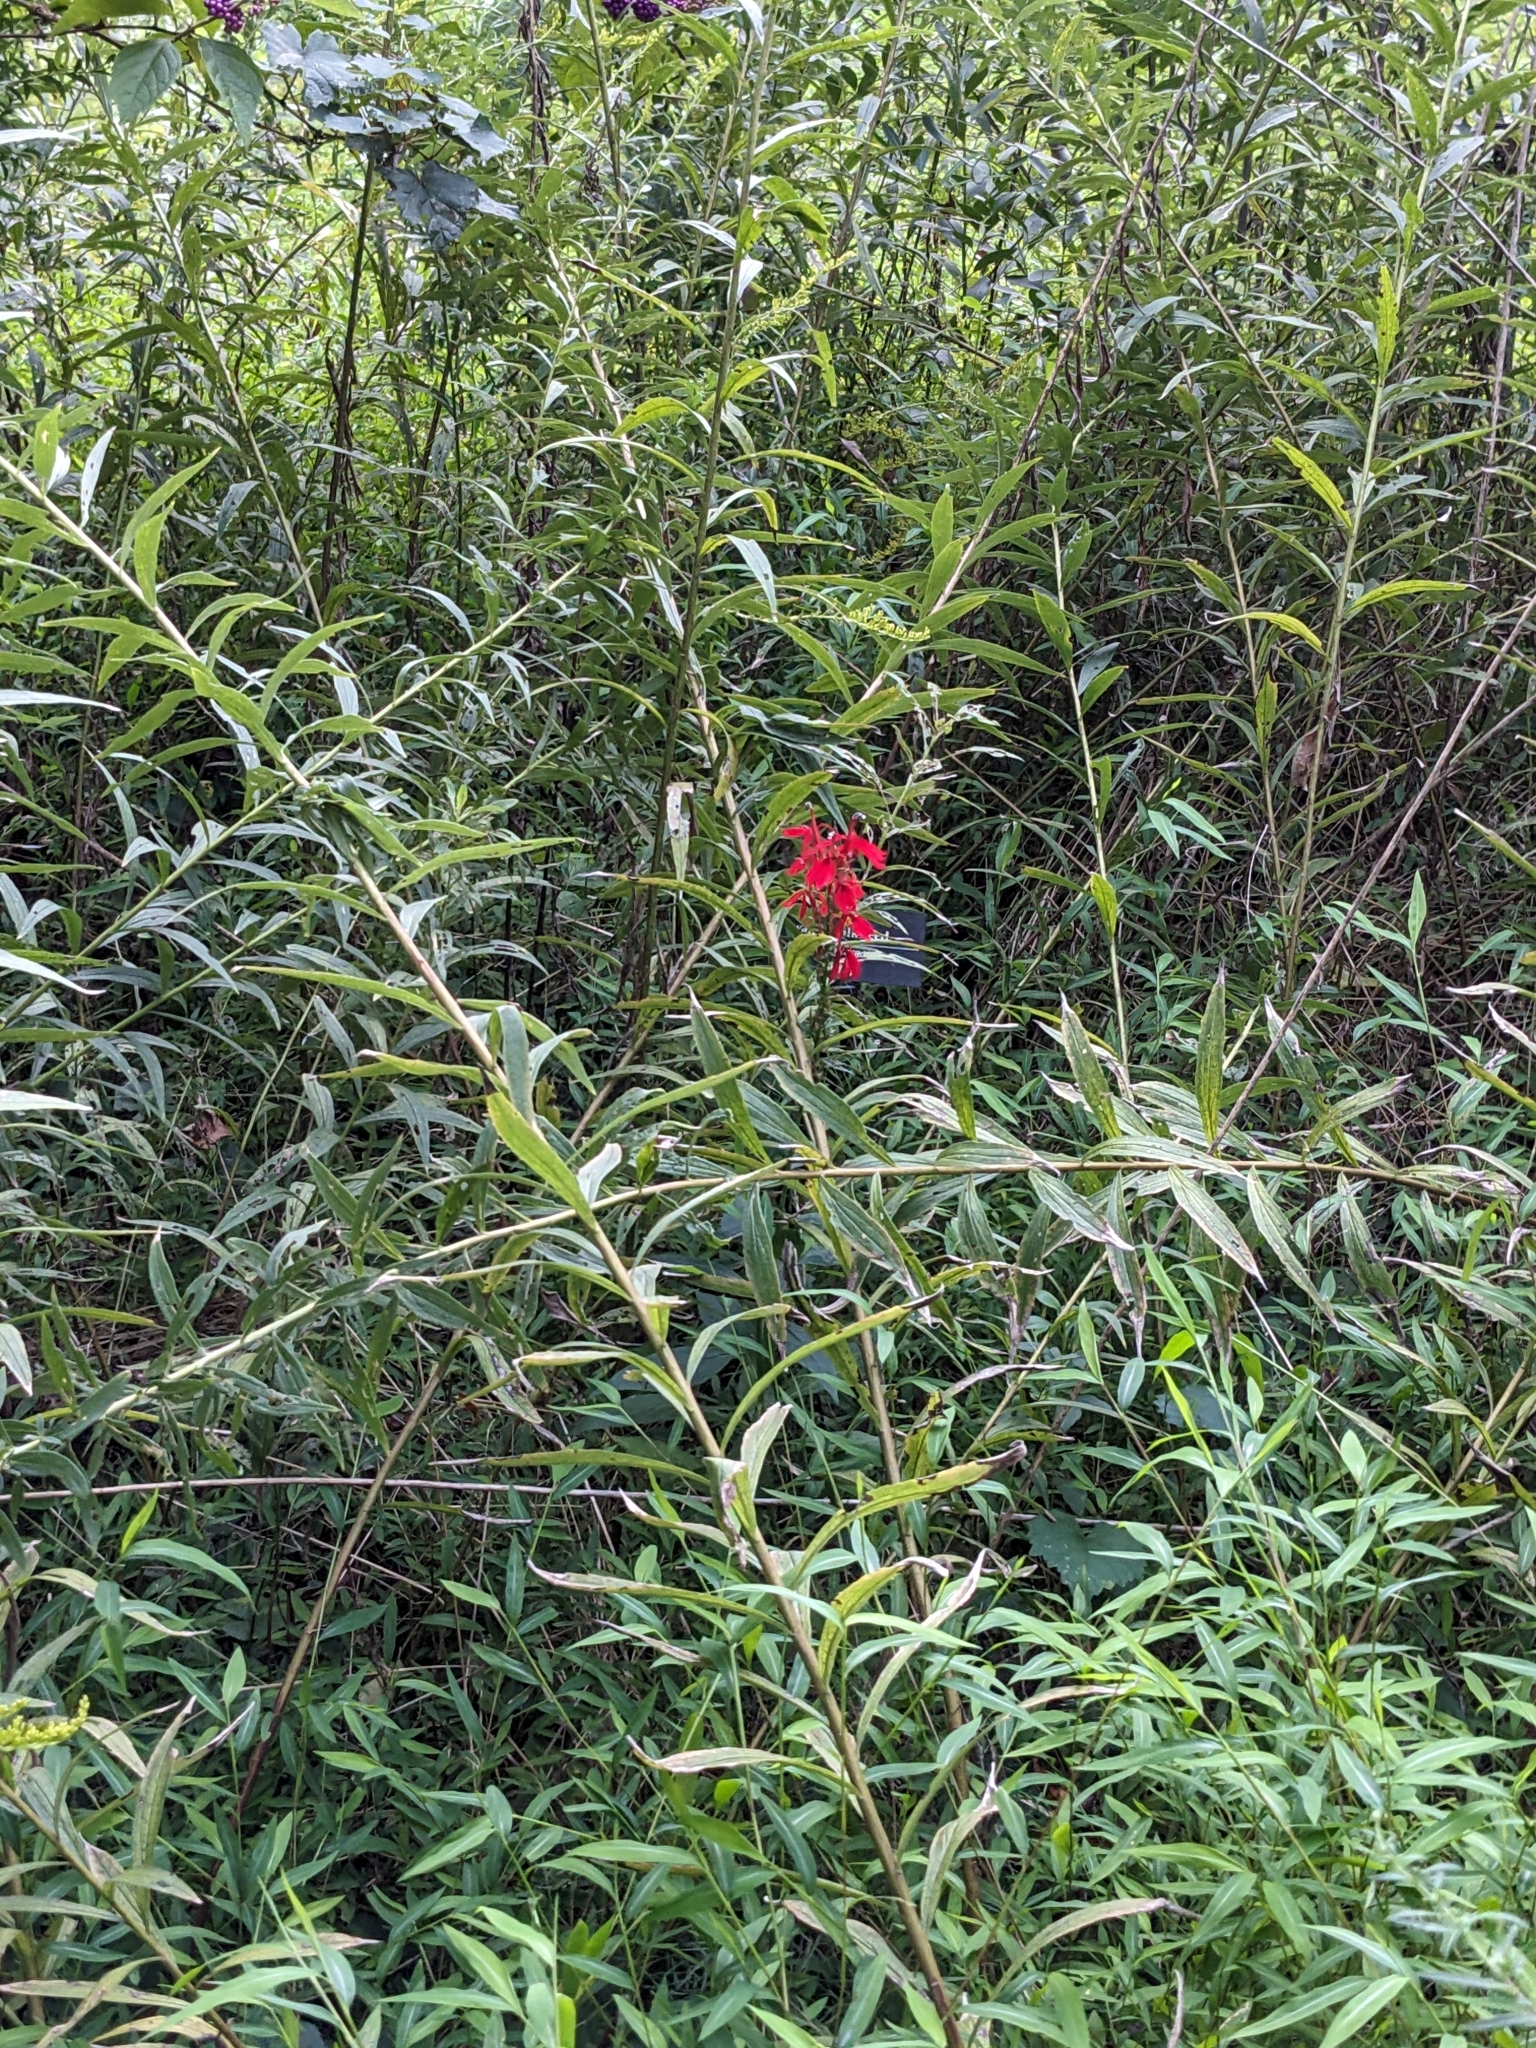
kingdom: Plantae
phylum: Tracheophyta
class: Magnoliopsida
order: Asterales
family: Campanulaceae
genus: Lobelia
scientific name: Lobelia cardinalis
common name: Cardinal flower
